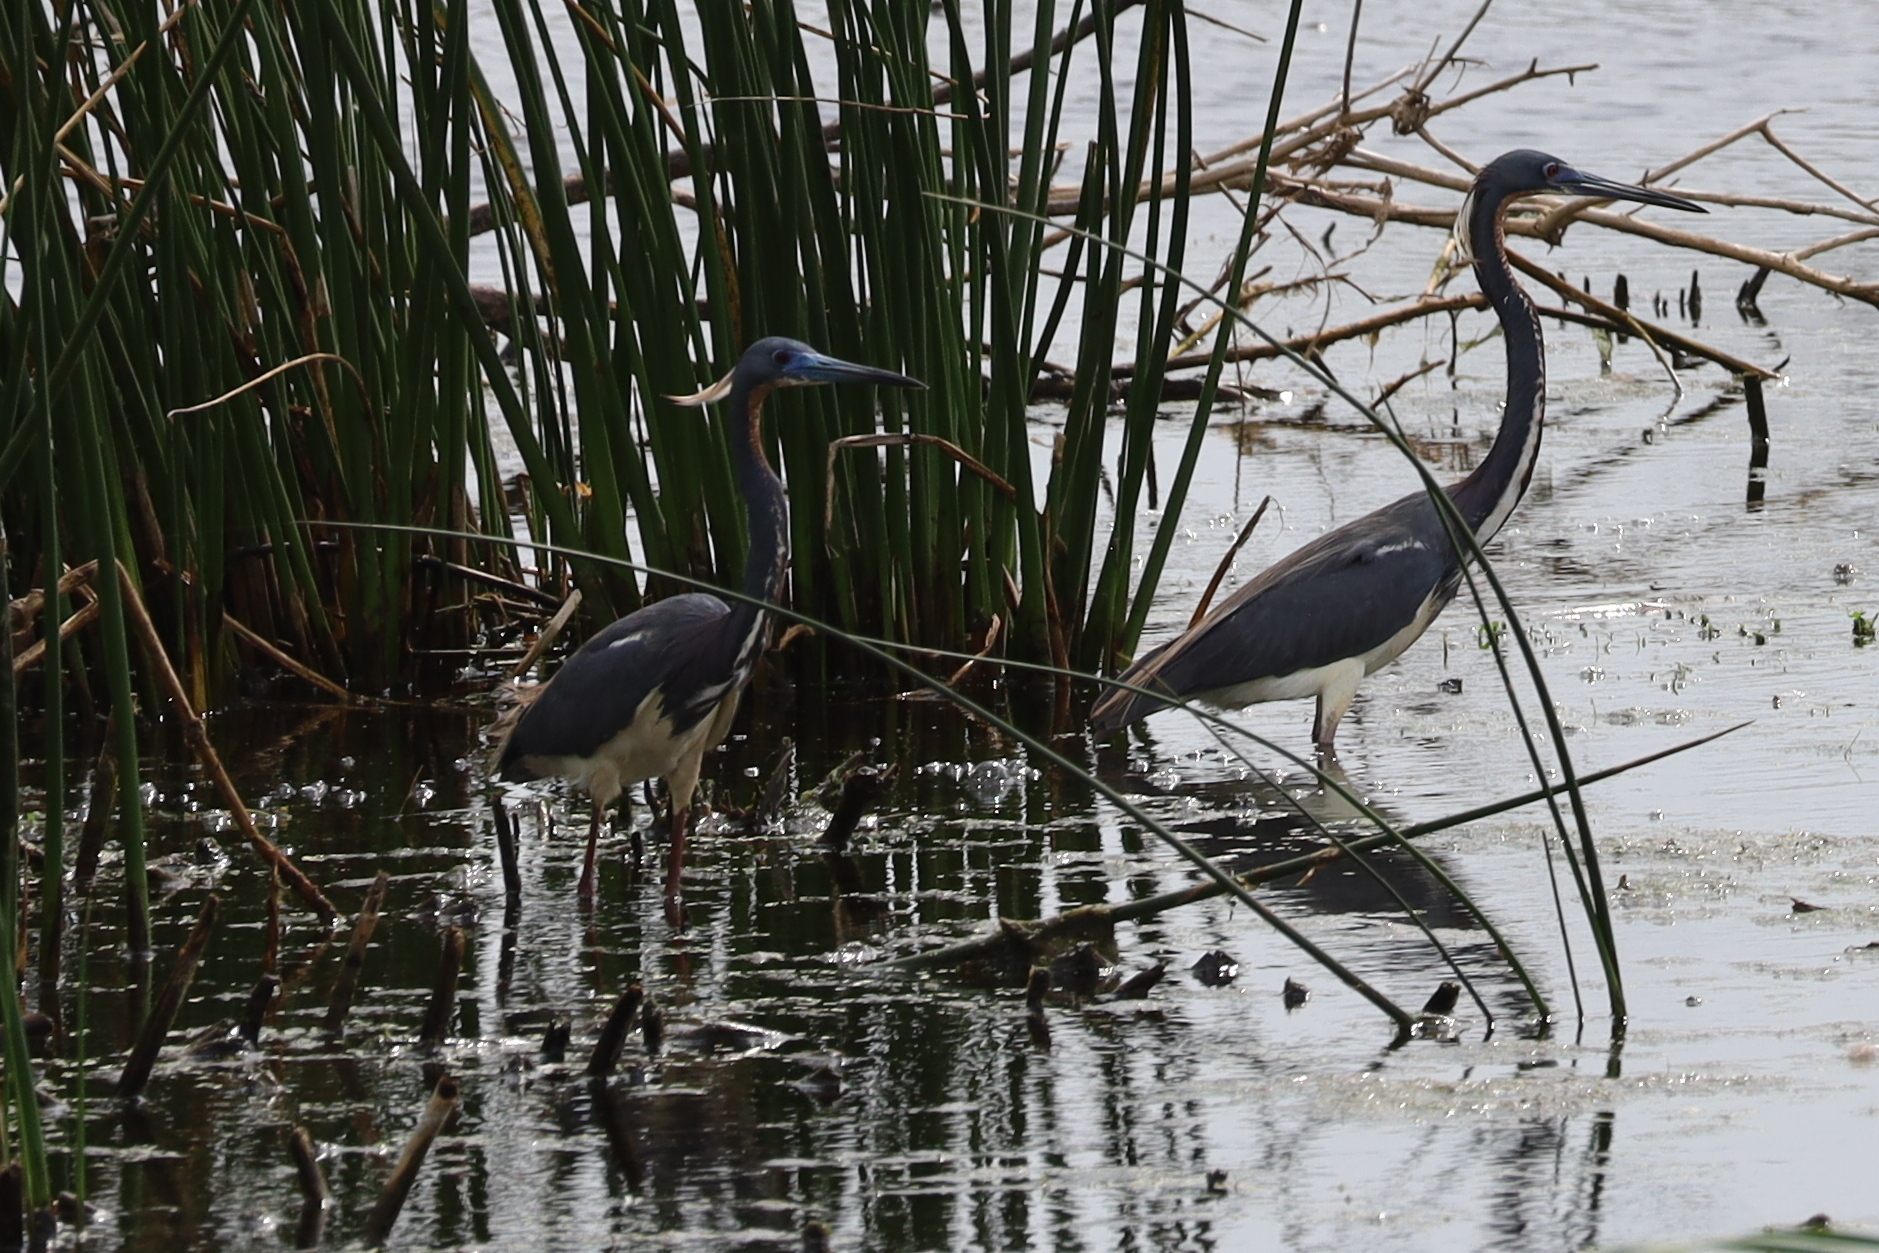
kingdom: Animalia
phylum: Chordata
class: Aves
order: Pelecaniformes
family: Ardeidae
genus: Egretta
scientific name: Egretta tricolor
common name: Tricolored heron
